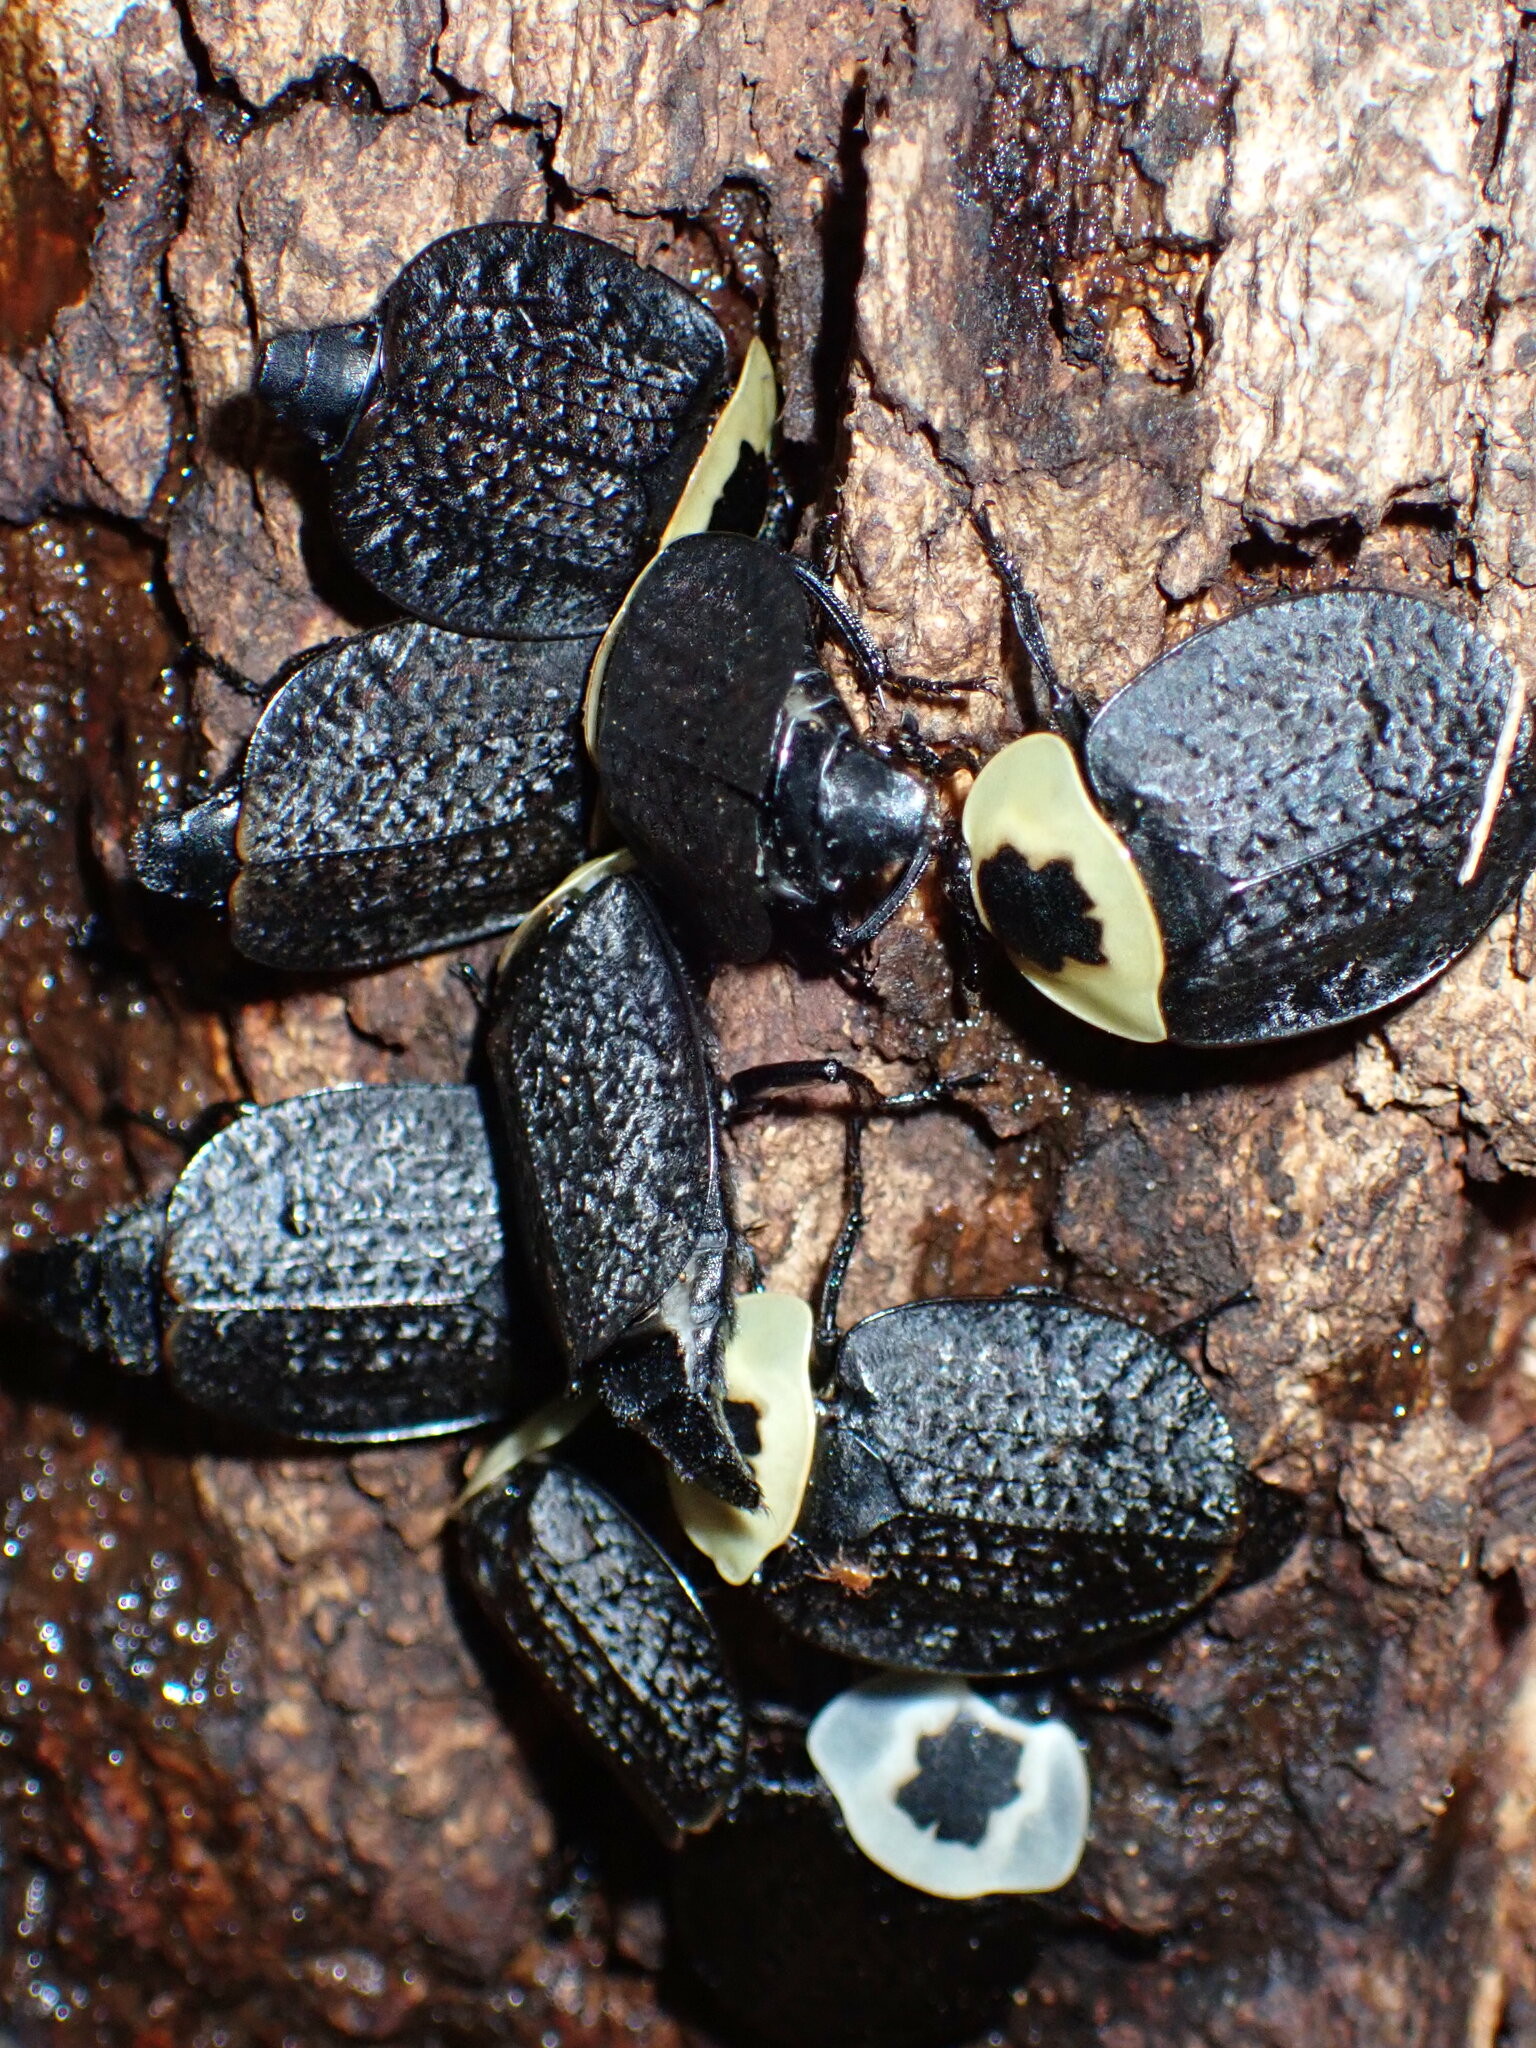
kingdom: Animalia
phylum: Arthropoda
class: Insecta
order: Coleoptera
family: Staphylinidae
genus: Necrophila
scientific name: Necrophila americana
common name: American carrion beetle
